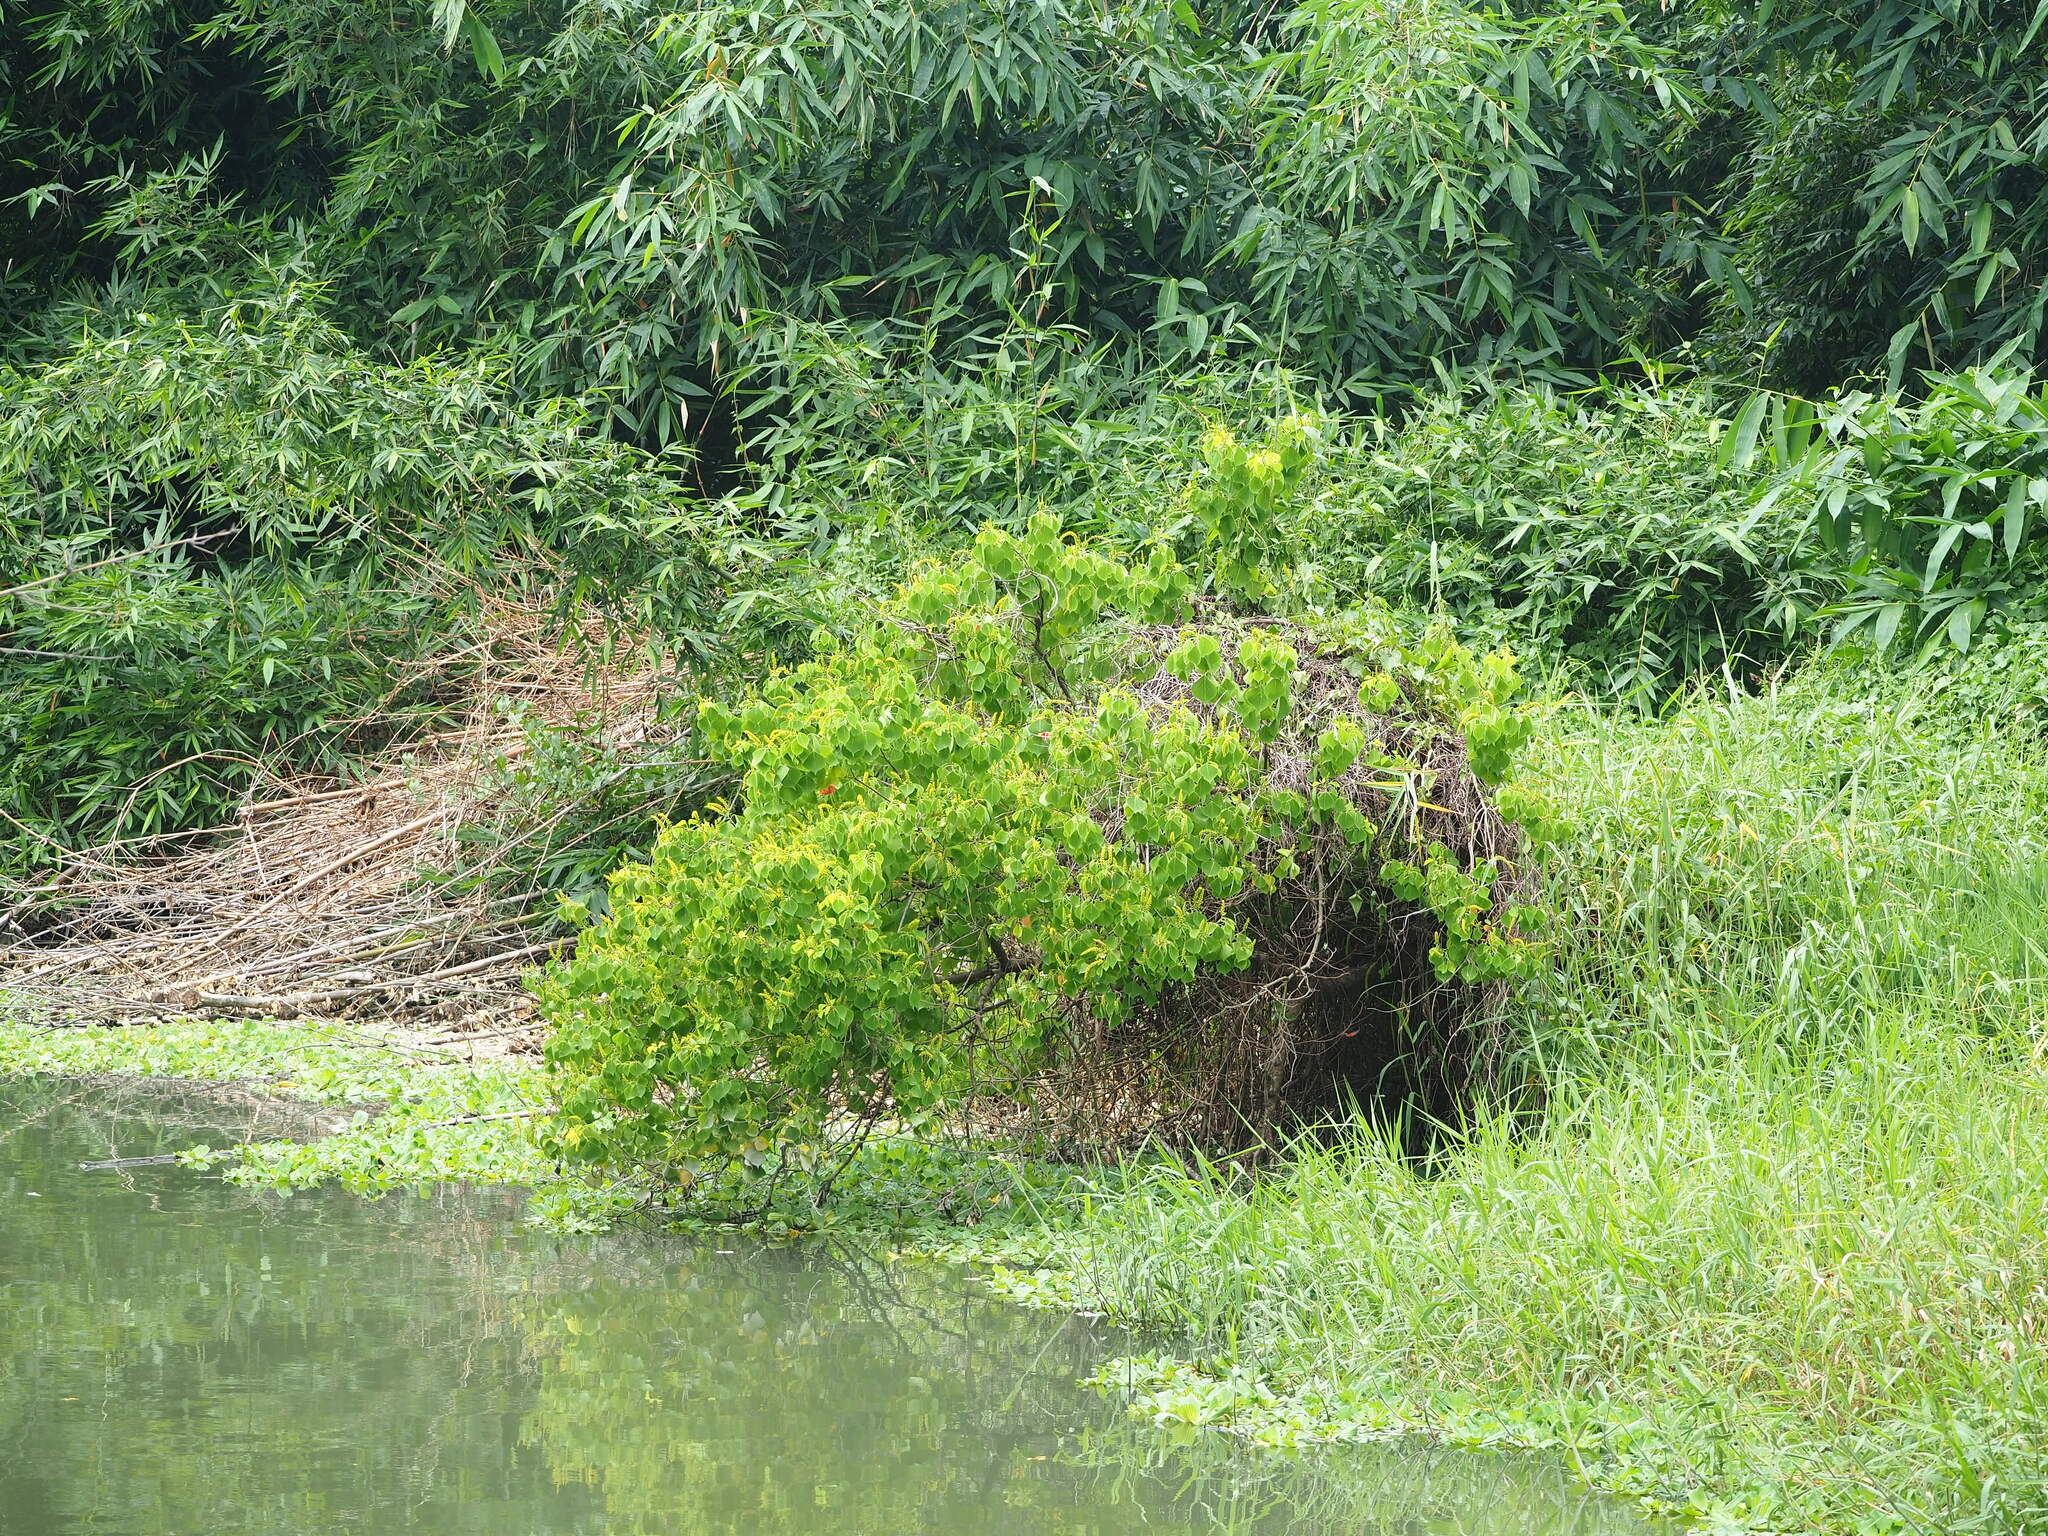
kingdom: Plantae
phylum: Tracheophyta
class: Magnoliopsida
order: Malpighiales
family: Euphorbiaceae
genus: Triadica
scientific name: Triadica sebifera
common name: Chinese tallow
